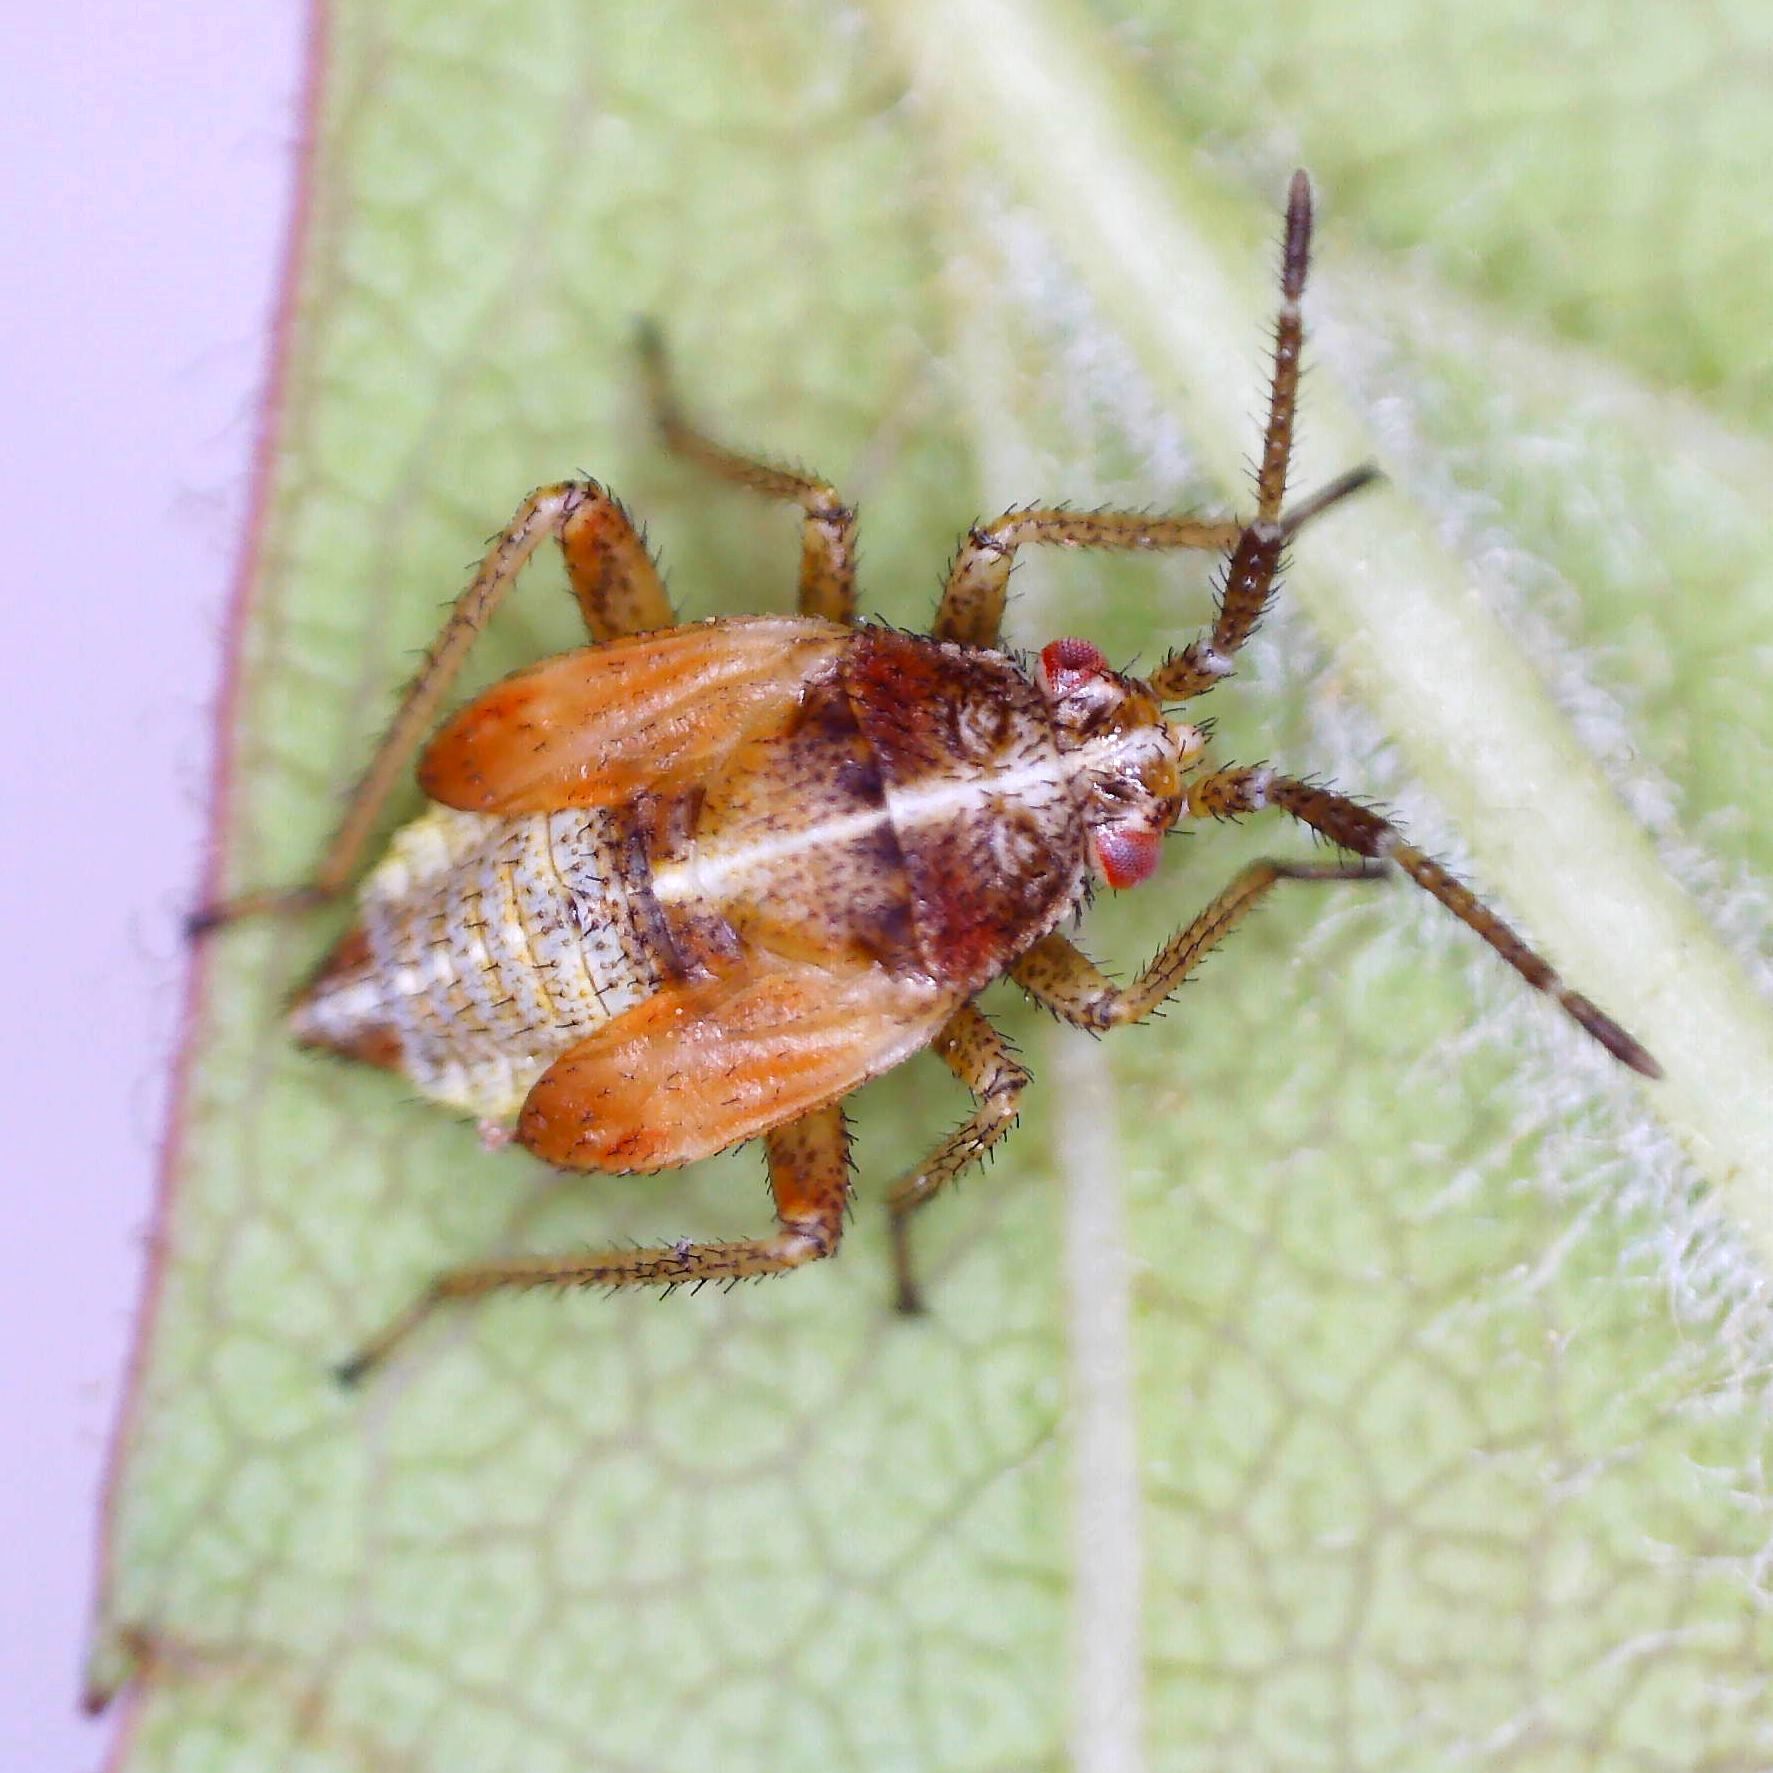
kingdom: Animalia
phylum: Arthropoda
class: Insecta
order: Hemiptera
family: Miridae
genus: Harpocera
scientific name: Harpocera thoracica
